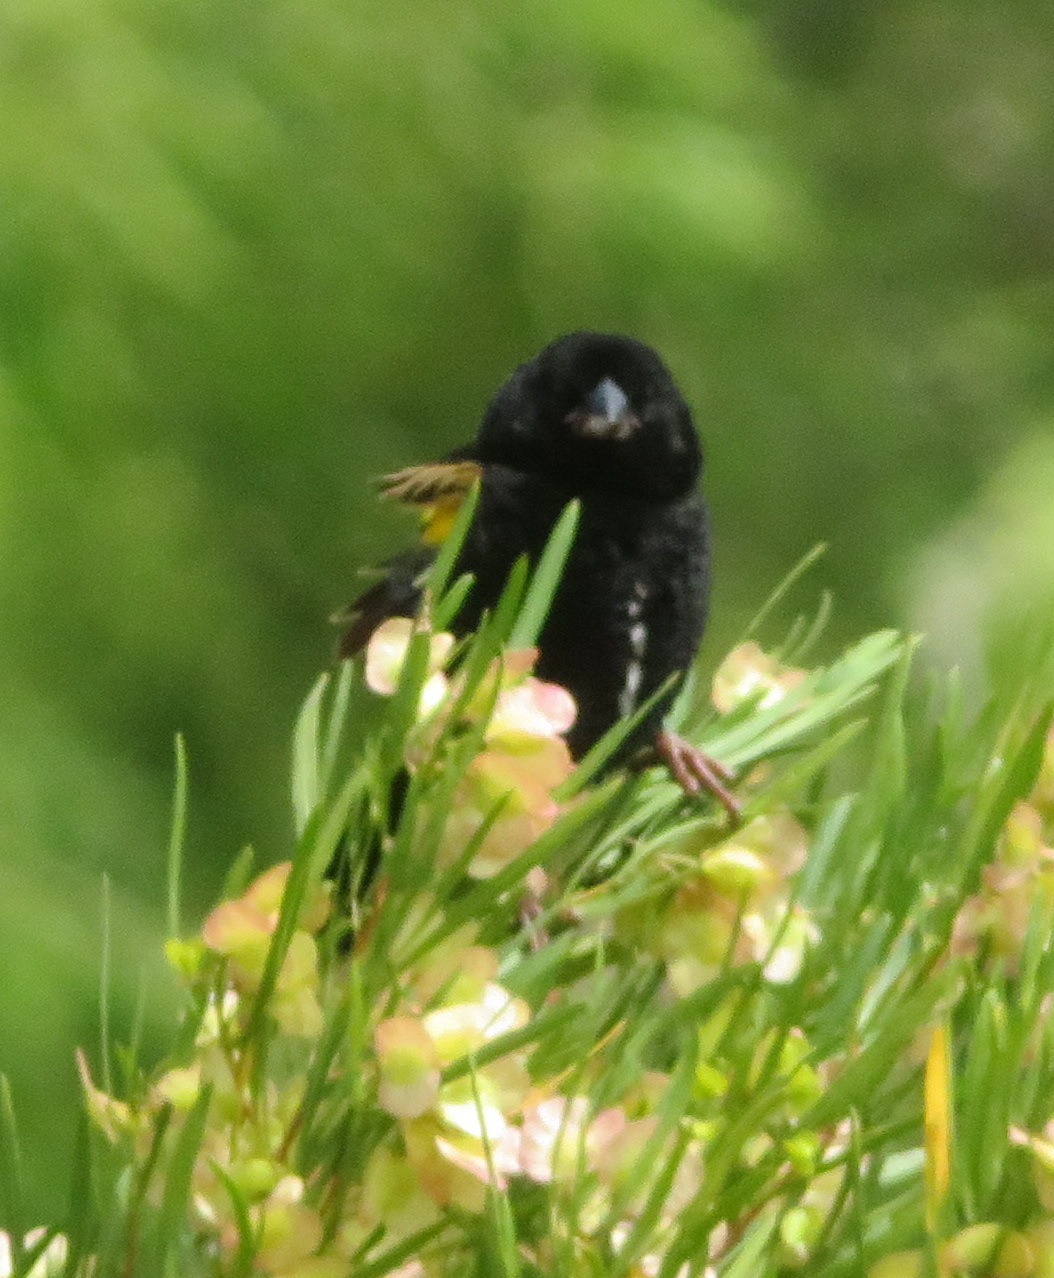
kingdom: Animalia
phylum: Chordata
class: Aves
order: Passeriformes
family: Ploceidae
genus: Euplectes
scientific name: Euplectes capensis
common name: Yellow bishop
